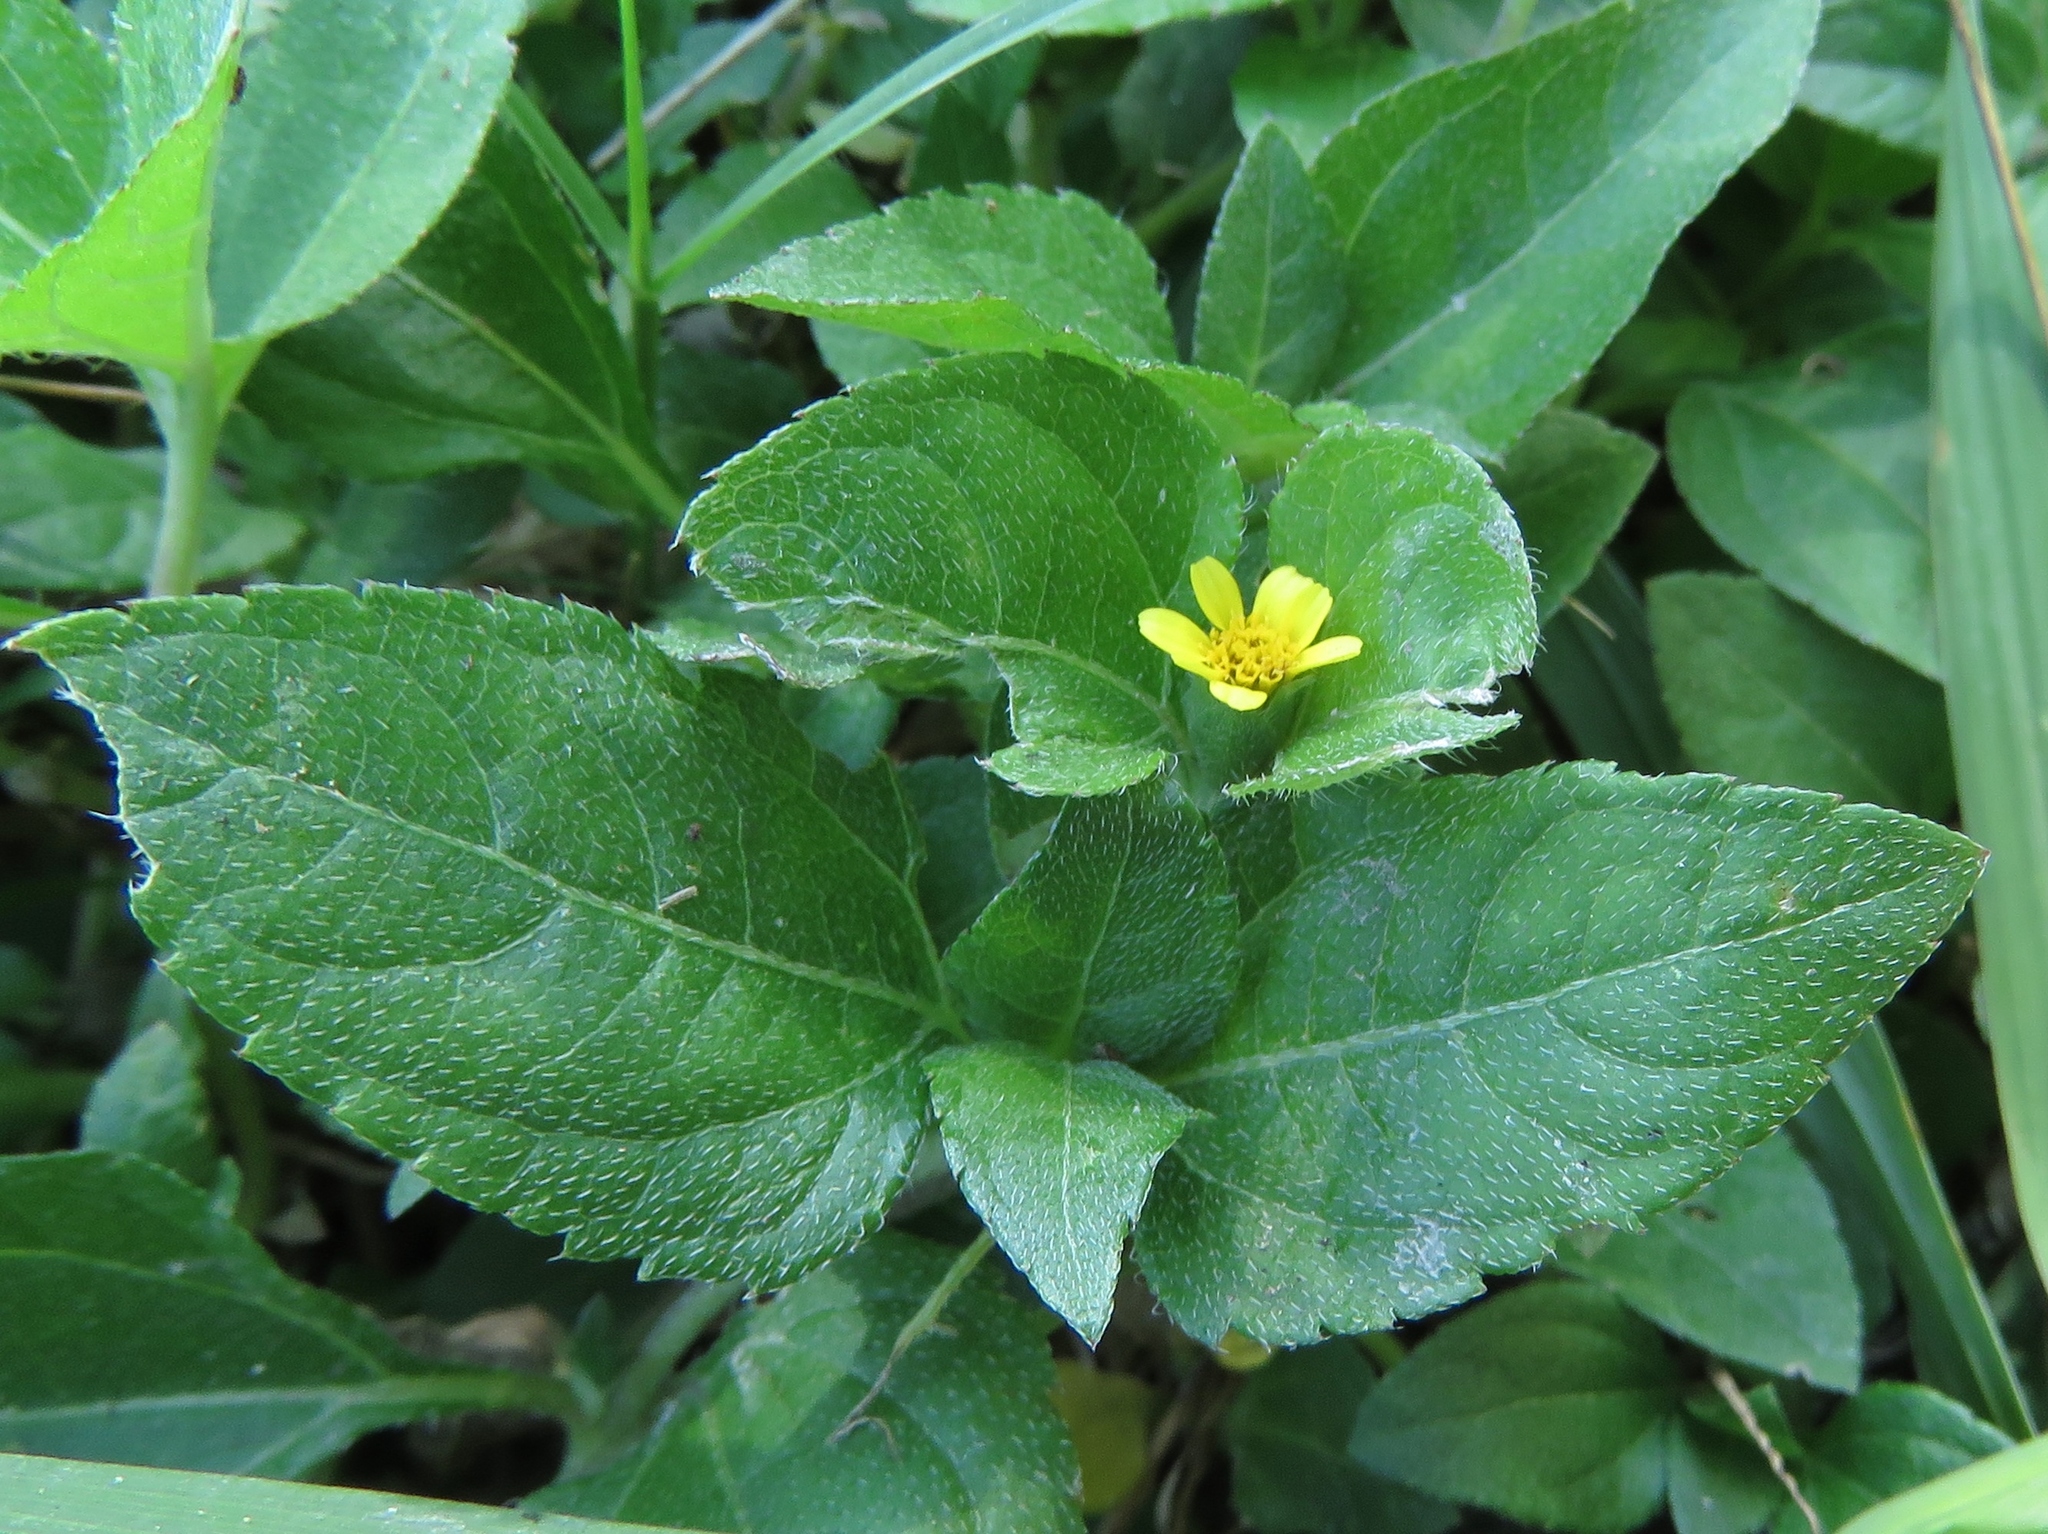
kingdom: Plantae
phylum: Tracheophyta
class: Magnoliopsida
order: Asterales
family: Asteraceae
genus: Calyptocarpus
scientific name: Calyptocarpus vialis
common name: Straggler daisy
